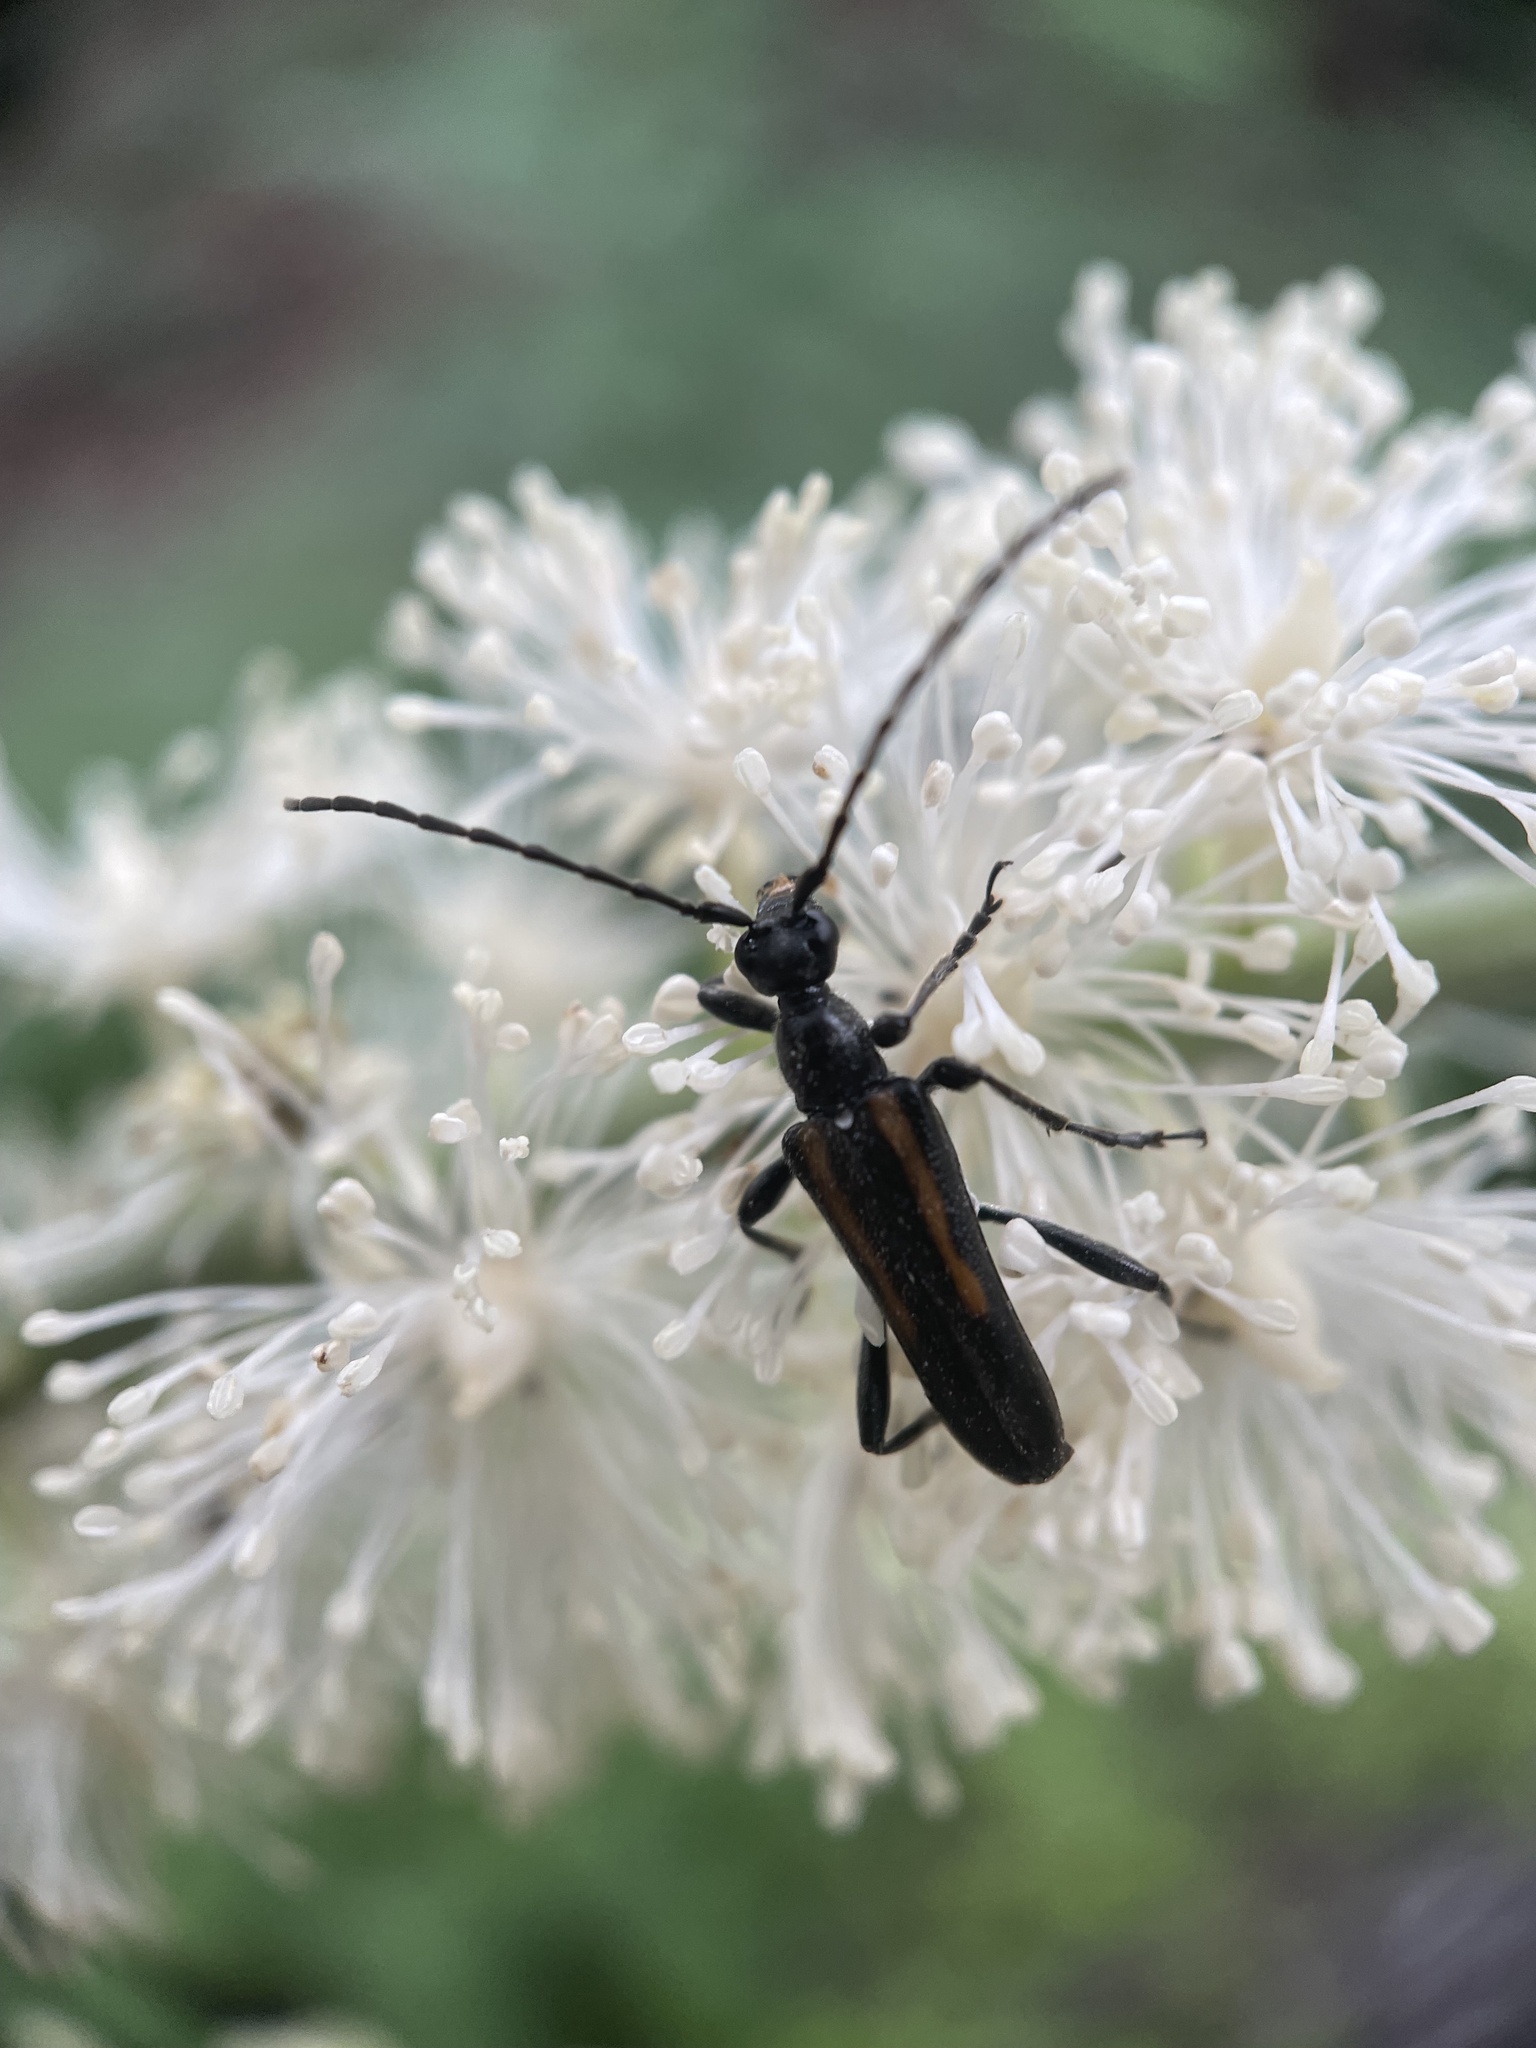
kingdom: Animalia
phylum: Arthropoda
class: Insecta
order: Coleoptera
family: Cerambycidae
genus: Strangalepta
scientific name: Strangalepta abbreviata
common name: Strangalepta flower longhorn beetle
